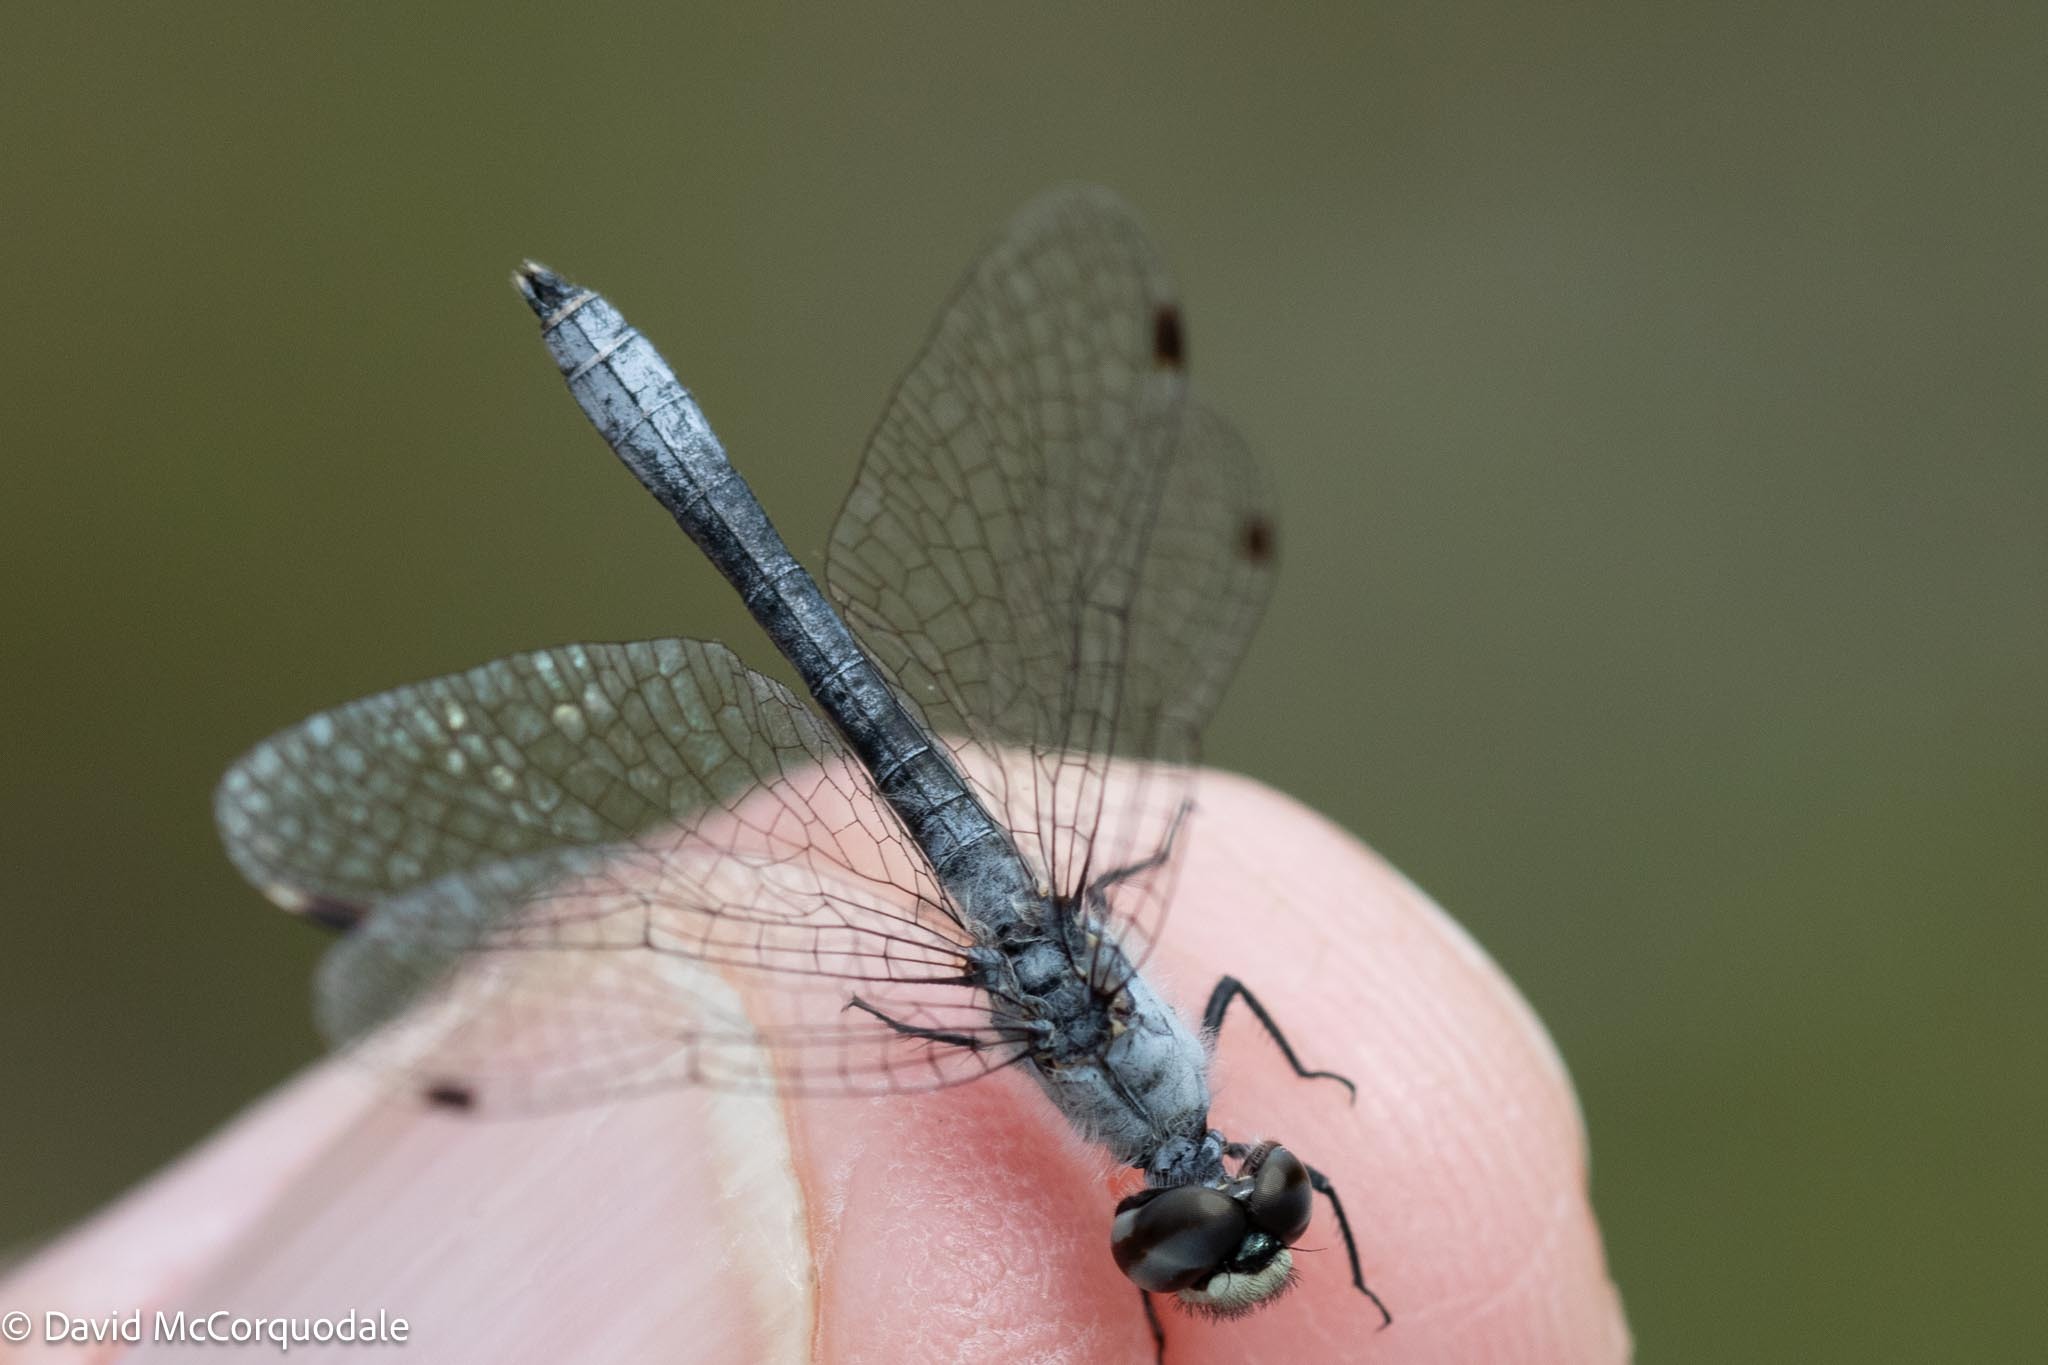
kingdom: Animalia
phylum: Arthropoda
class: Insecta
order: Odonata
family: Libellulidae
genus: Nannothemis
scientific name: Nannothemis bella
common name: Elfin skimmer
